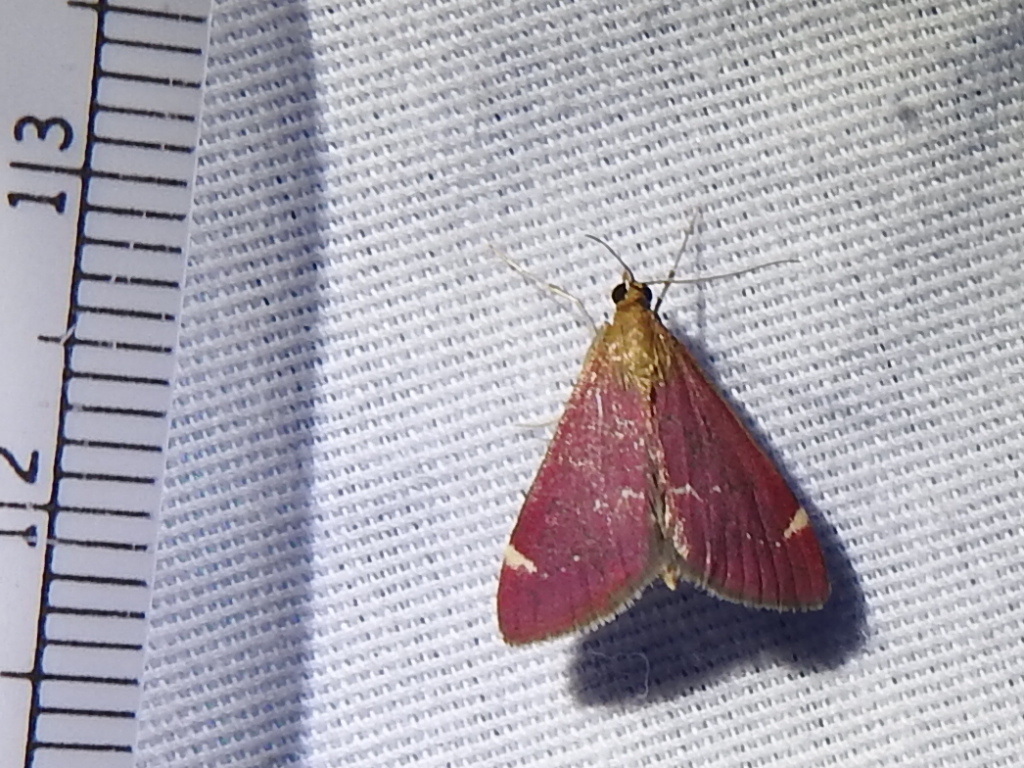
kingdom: Animalia
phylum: Arthropoda
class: Insecta
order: Lepidoptera
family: Crambidae
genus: Pyrausta
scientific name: Pyrausta grotei
